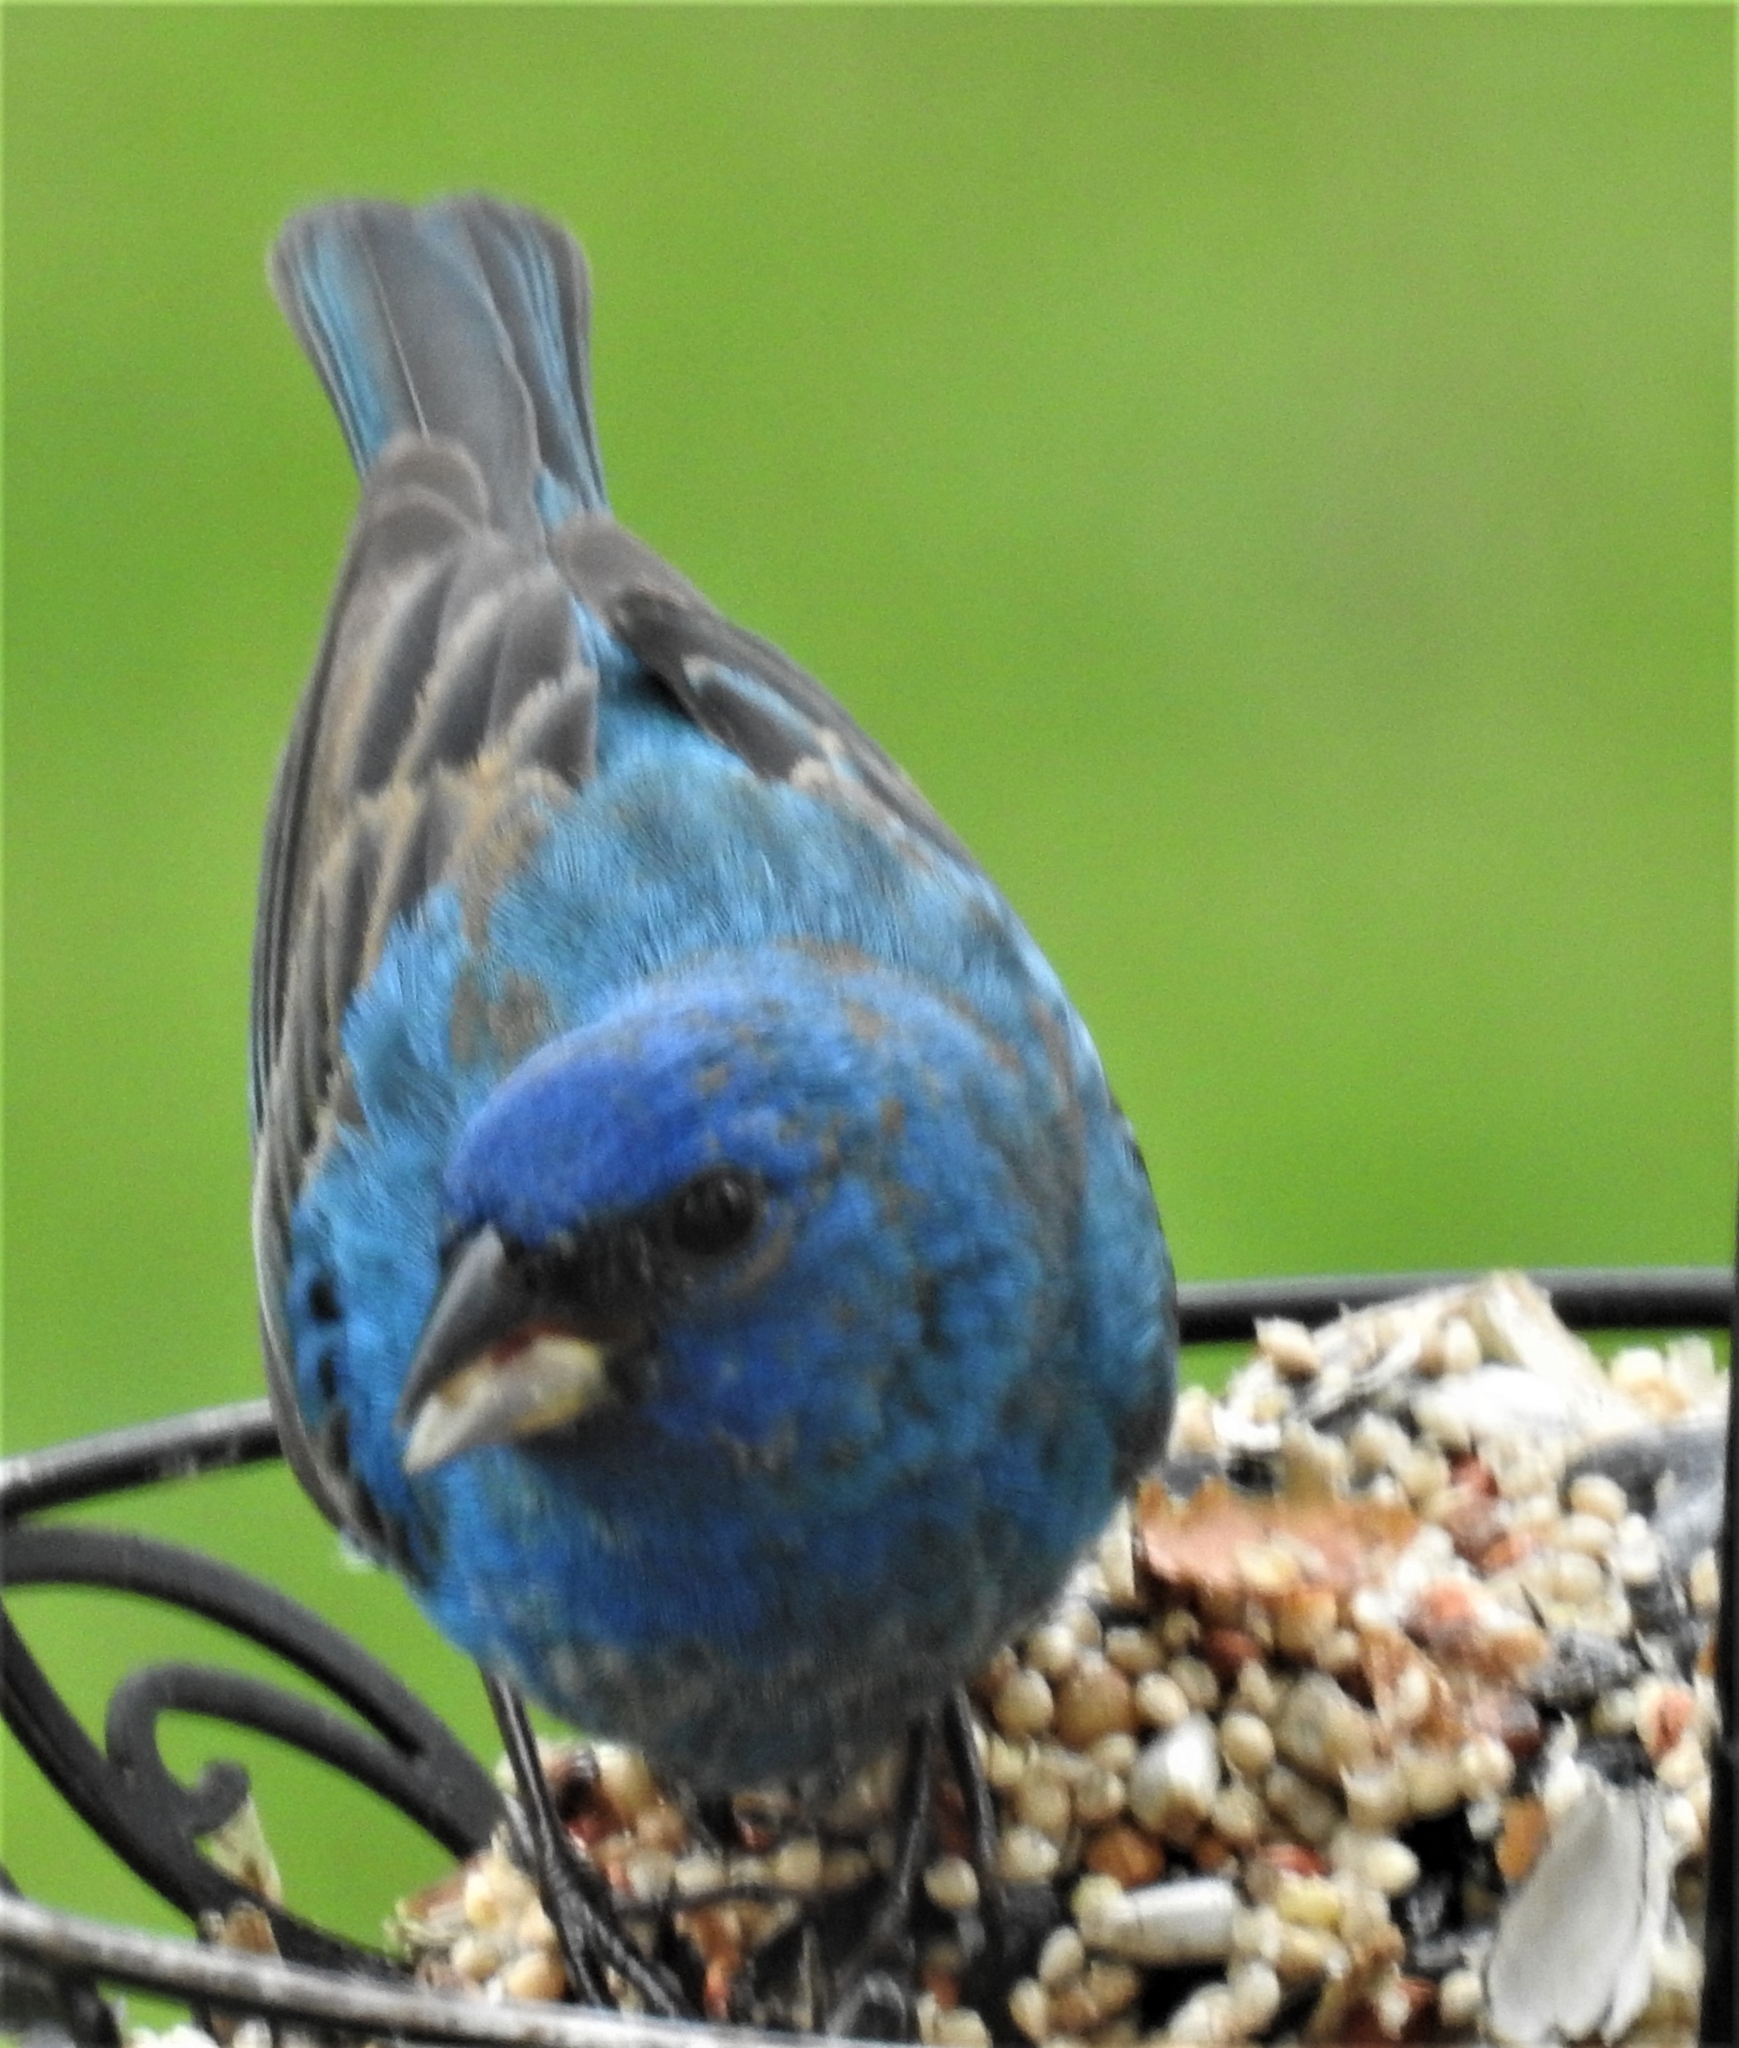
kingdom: Animalia
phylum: Chordata
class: Aves
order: Passeriformes
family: Cardinalidae
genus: Passerina
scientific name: Passerina cyanea
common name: Indigo bunting
